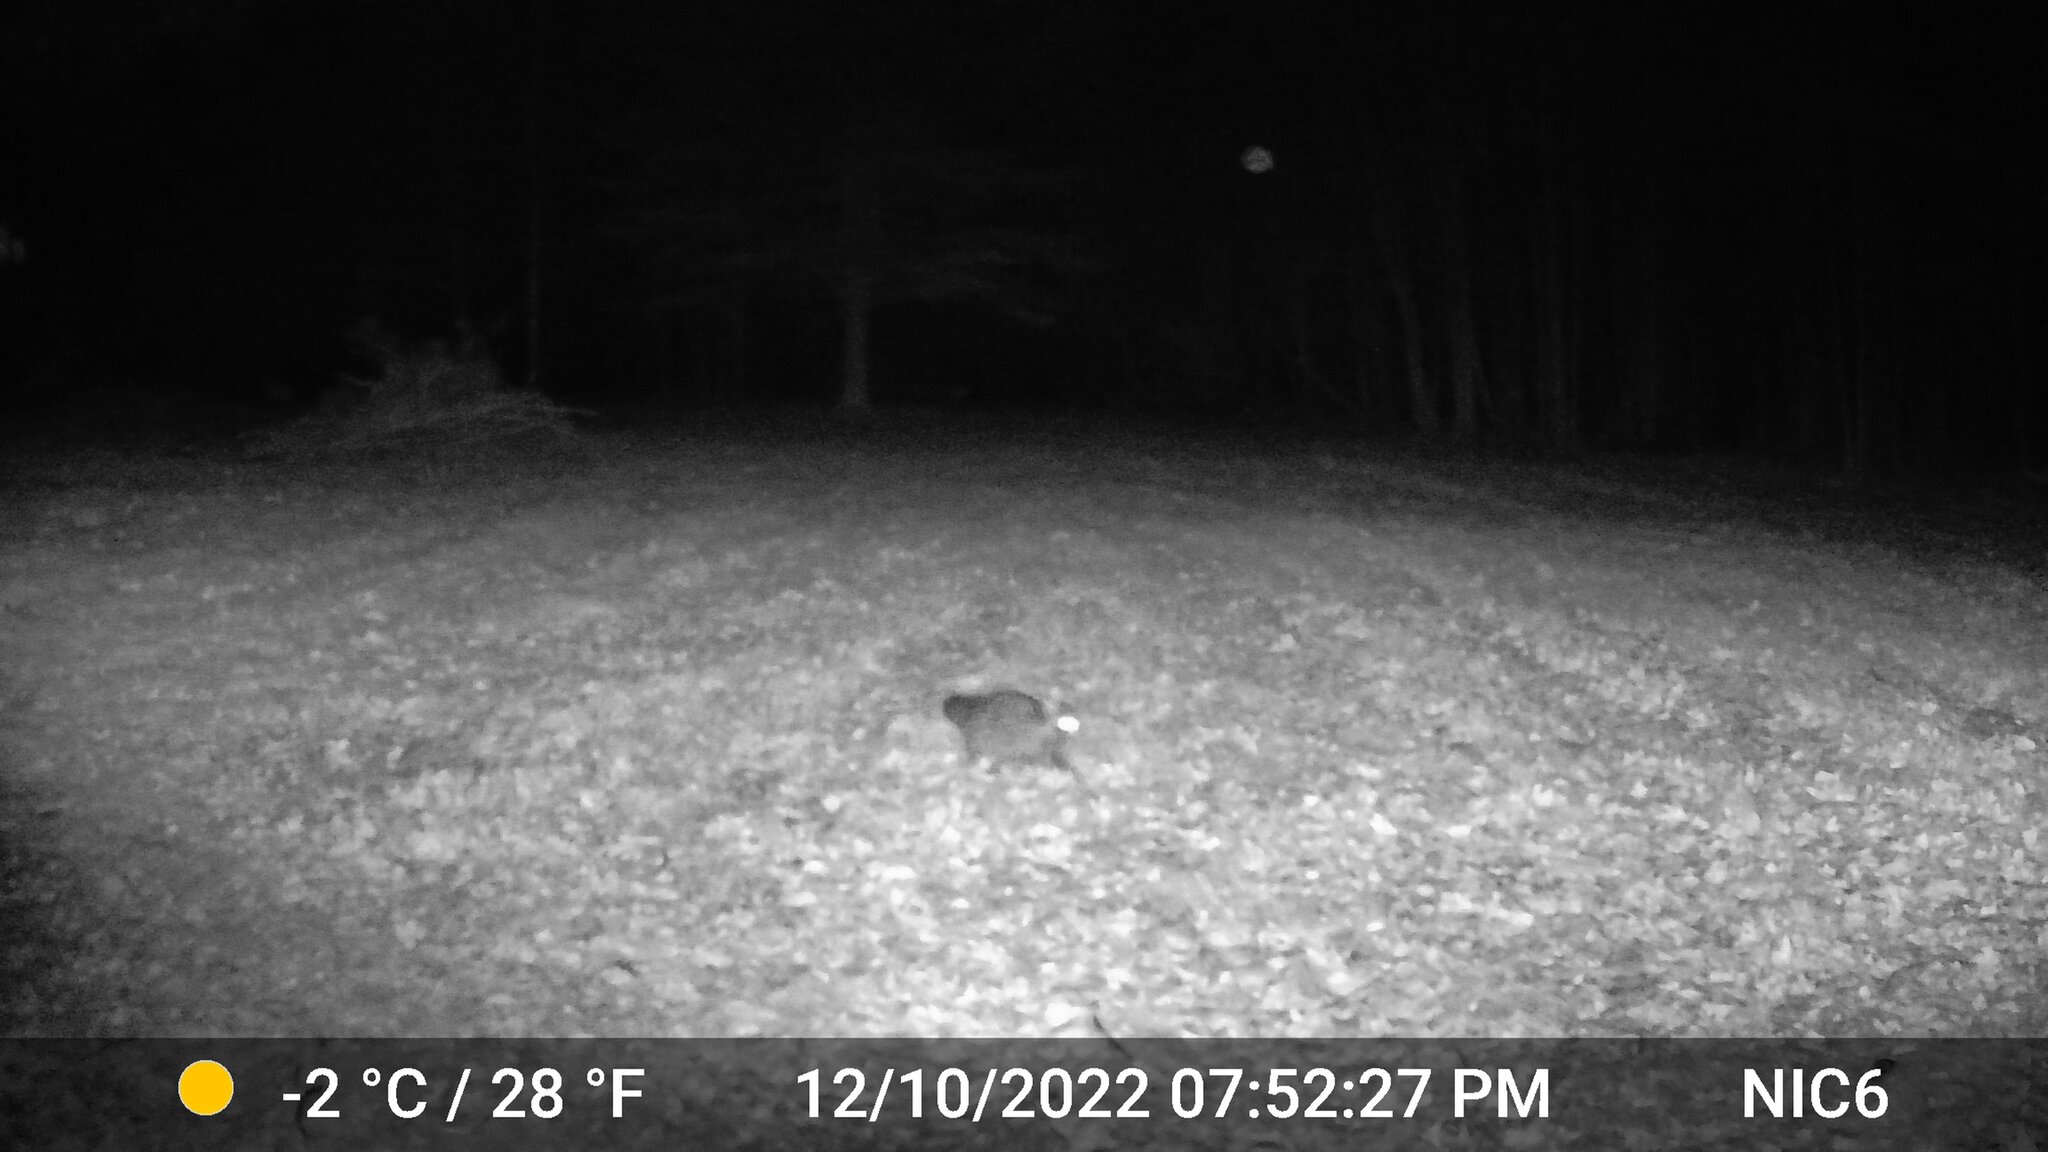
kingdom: Animalia
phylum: Chordata
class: Mammalia
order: Carnivora
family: Procyonidae
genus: Procyon
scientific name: Procyon lotor
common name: Raccoon
